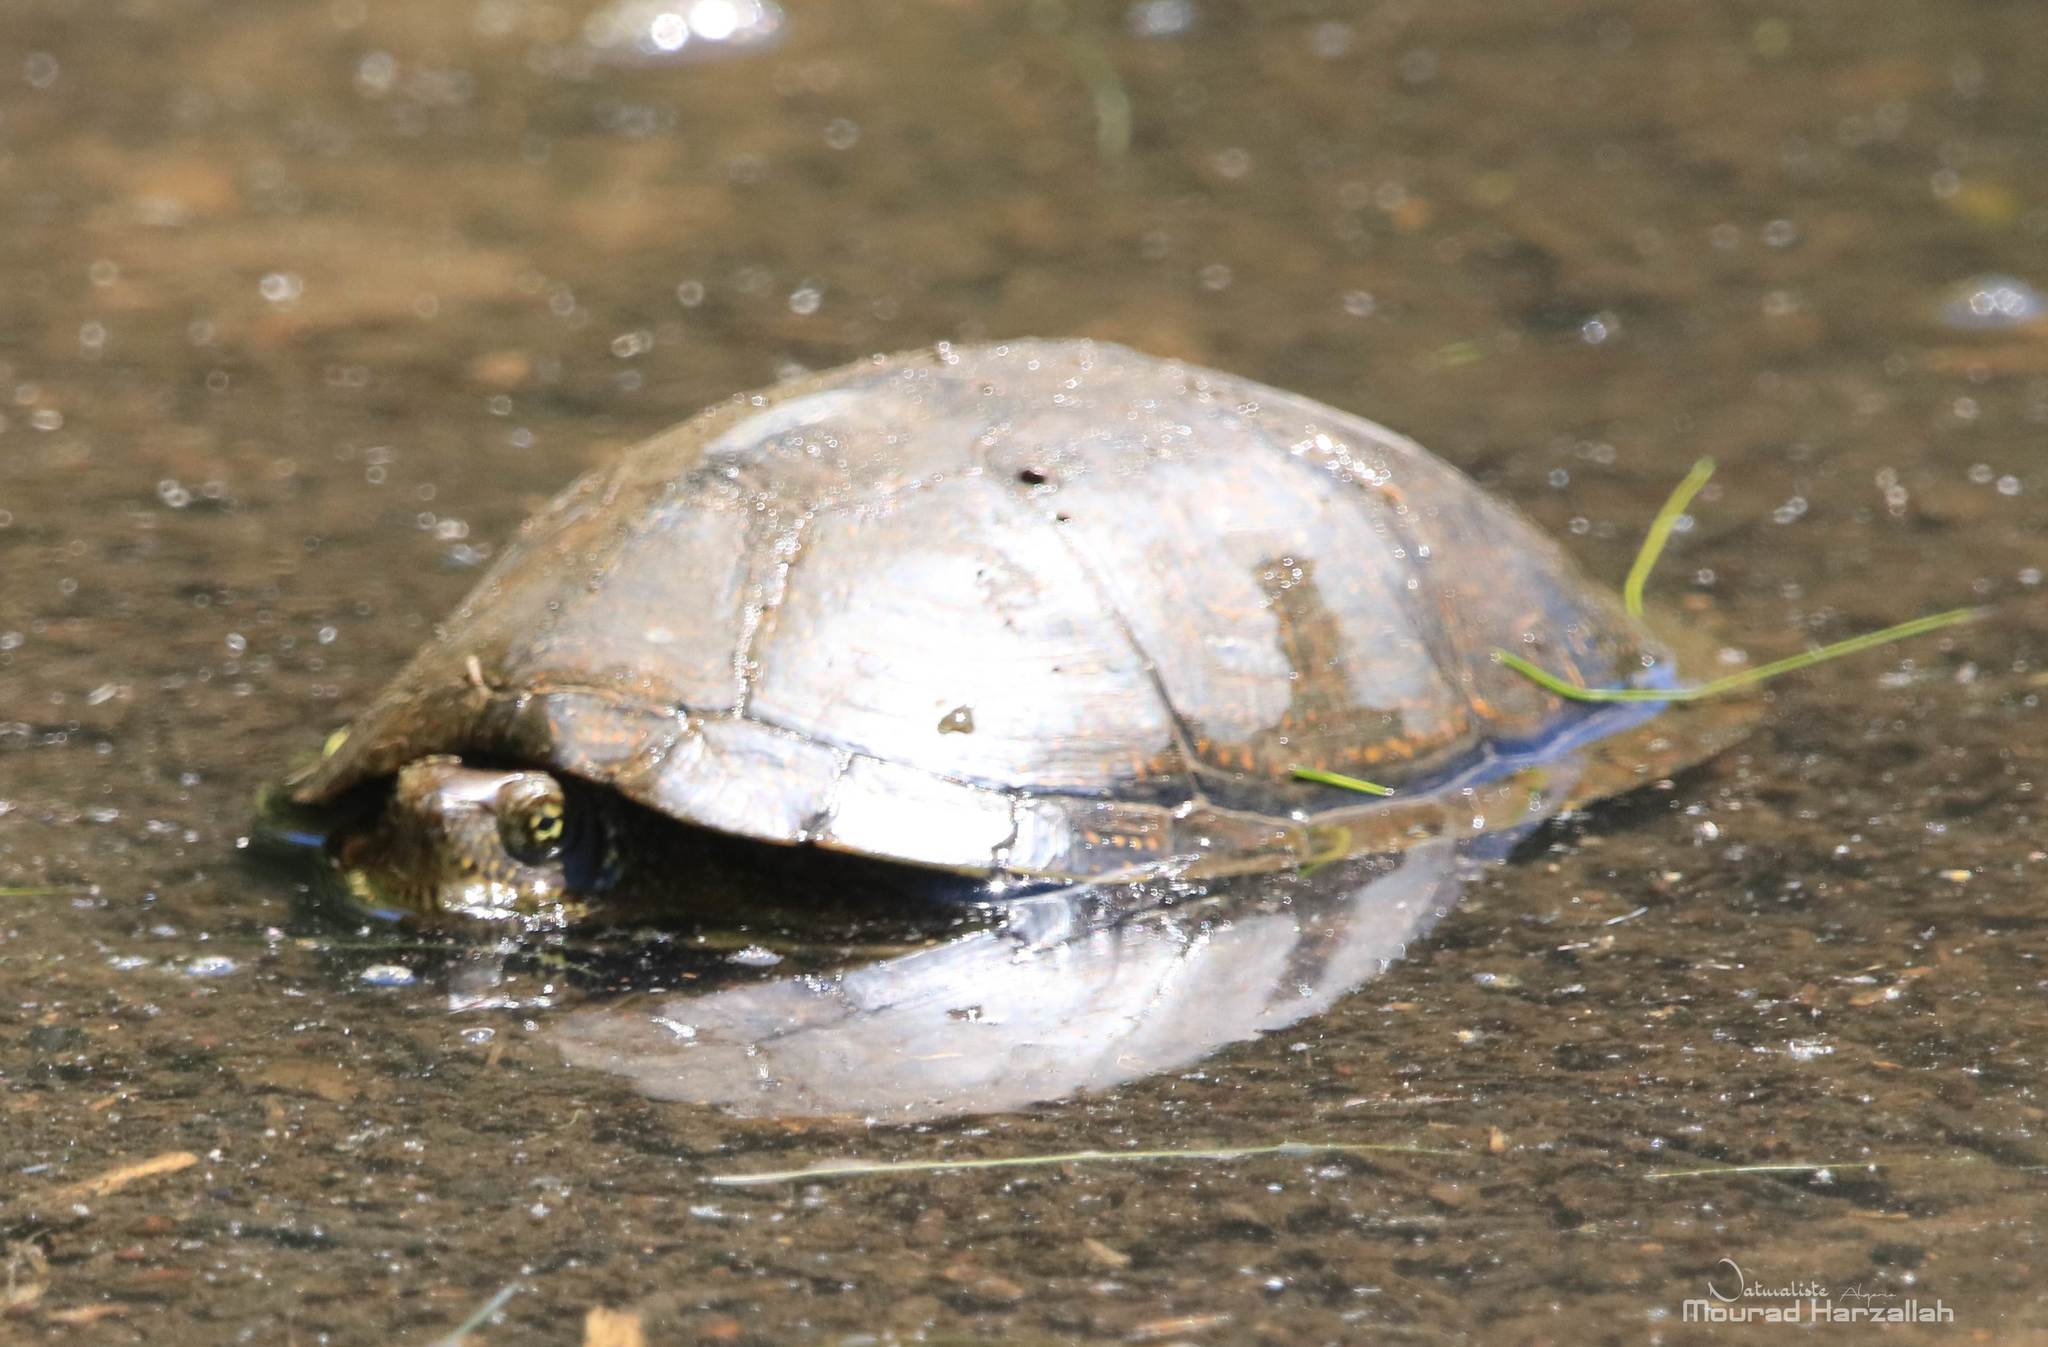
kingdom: Animalia
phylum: Chordata
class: Testudines
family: Emydidae
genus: Emys
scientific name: Emys orbicularis
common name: European pond turtle
